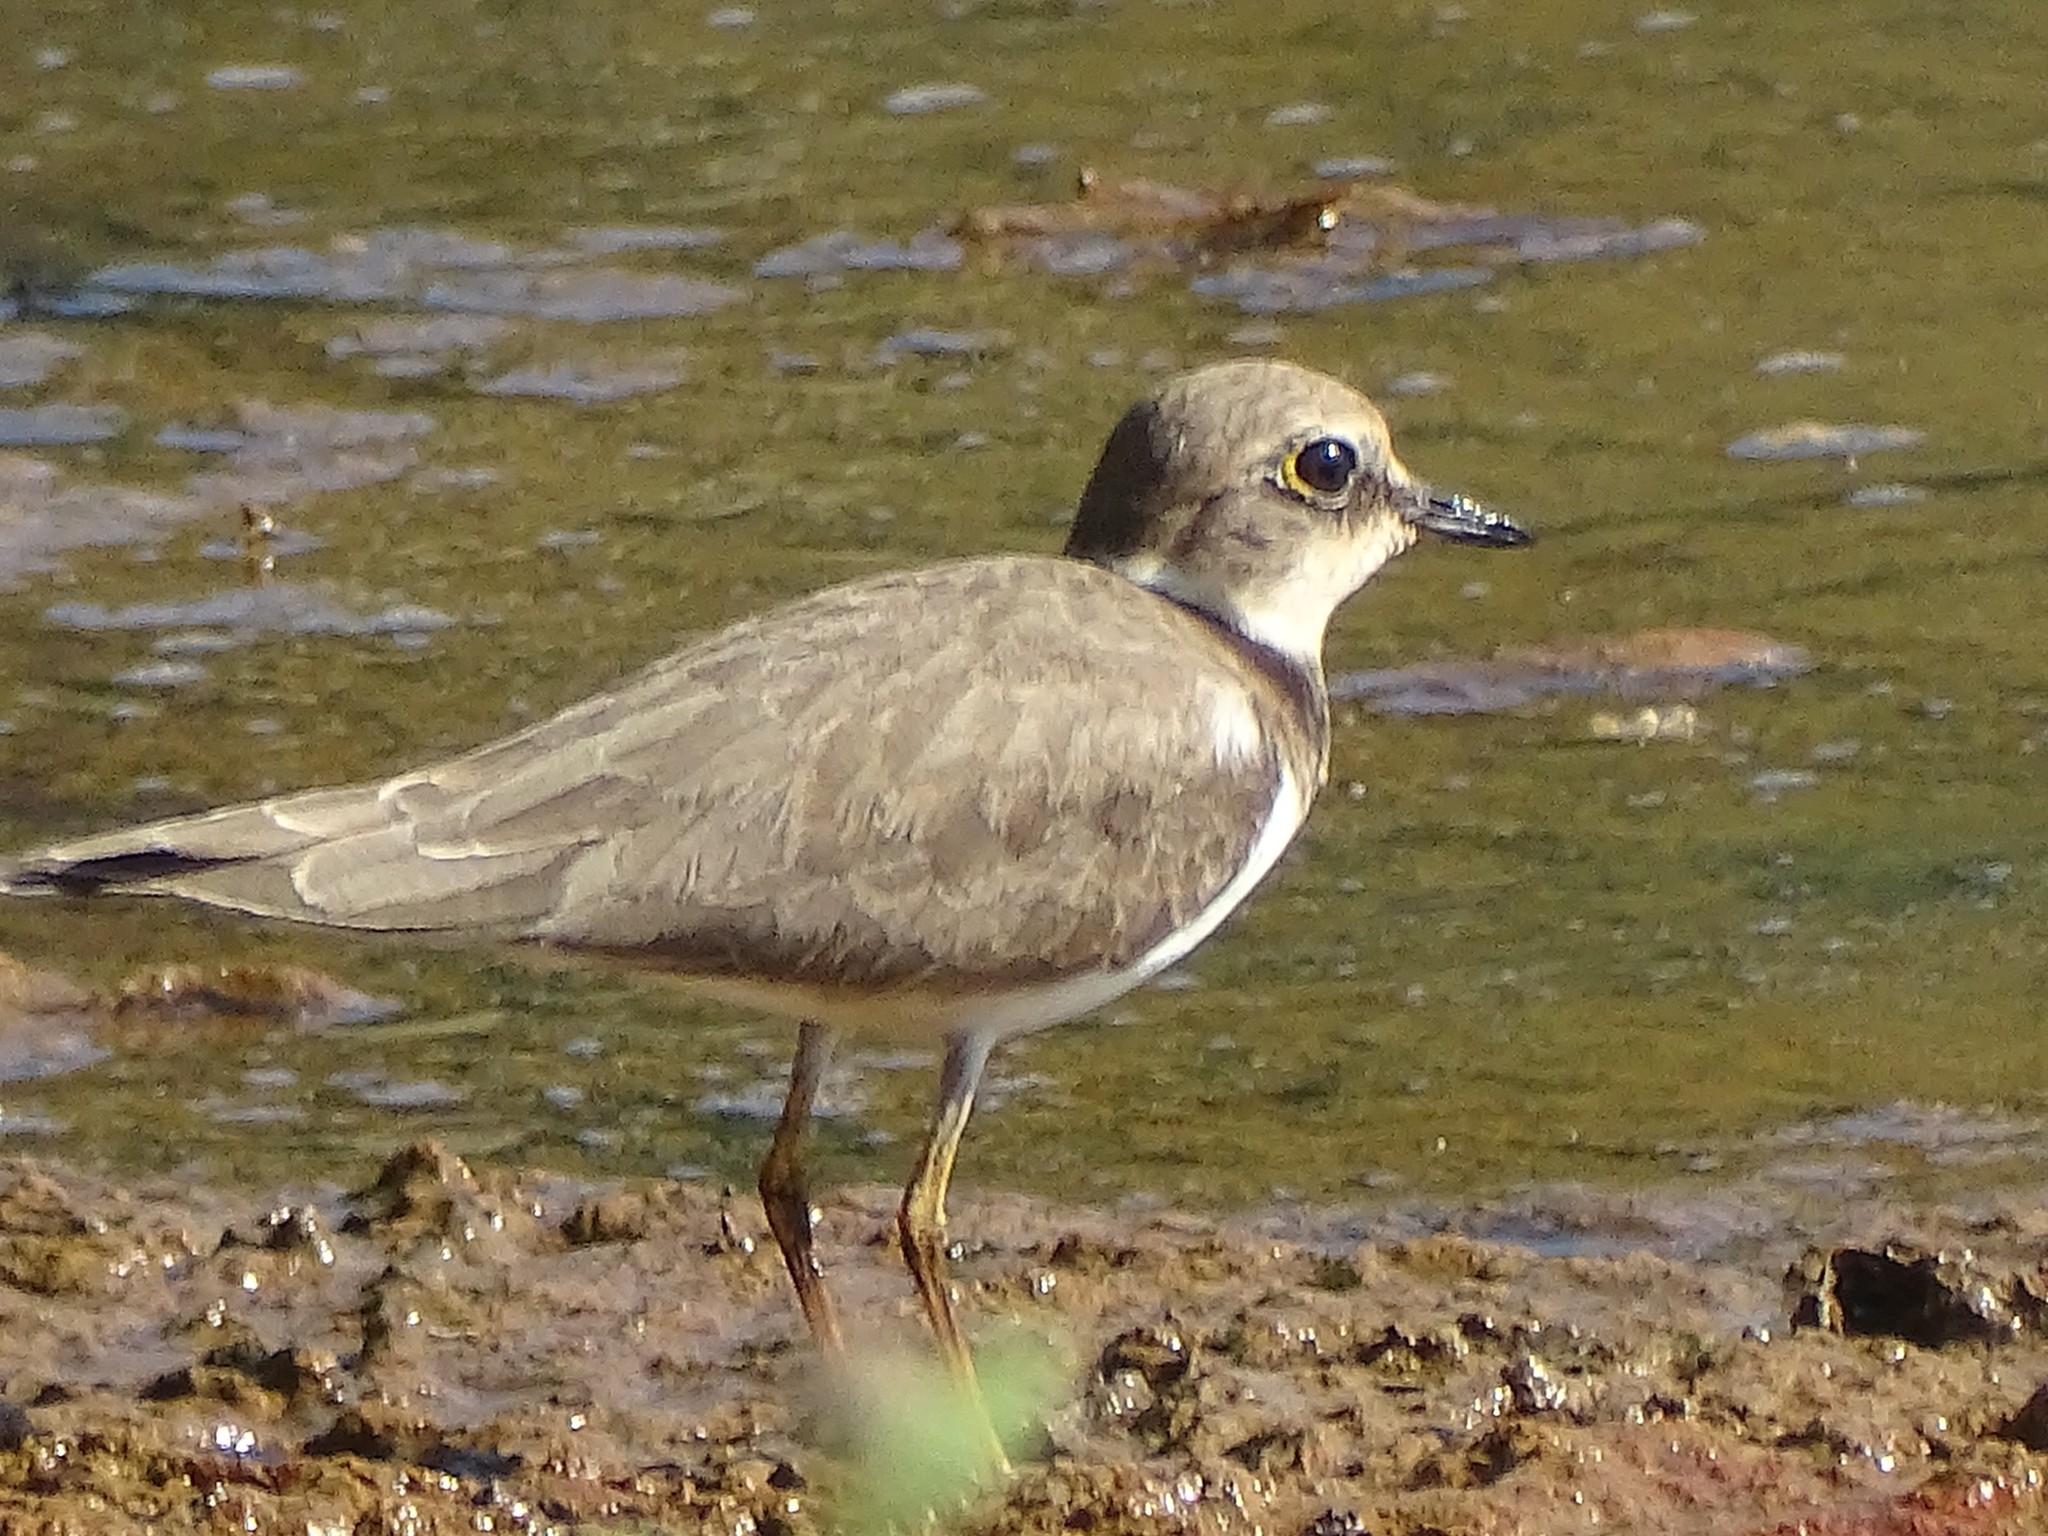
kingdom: Animalia
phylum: Chordata
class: Aves
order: Charadriiformes
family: Charadriidae
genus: Charadrius
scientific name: Charadrius dubius
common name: Little ringed plover
